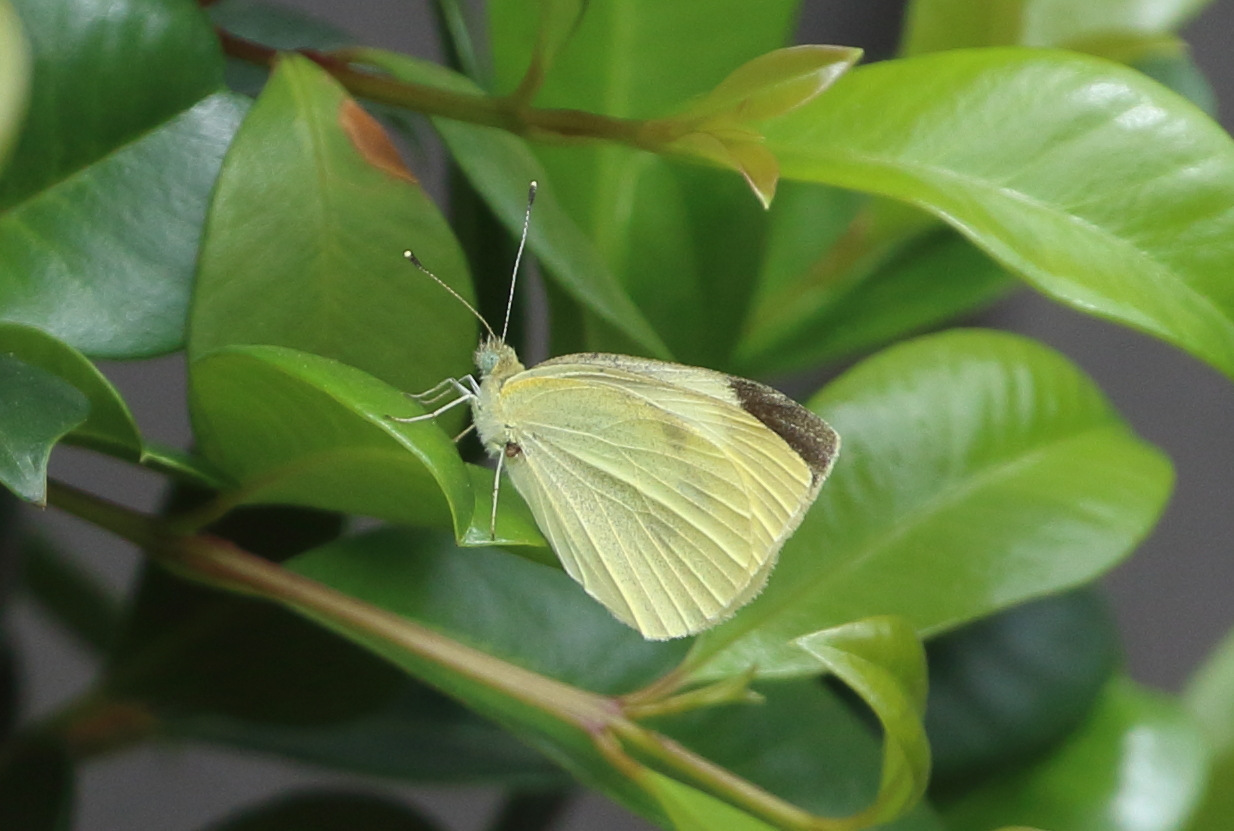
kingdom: Animalia
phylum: Arthropoda
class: Insecta
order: Lepidoptera
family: Pieridae
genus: Pieris
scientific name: Pieris rapae
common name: Small white
